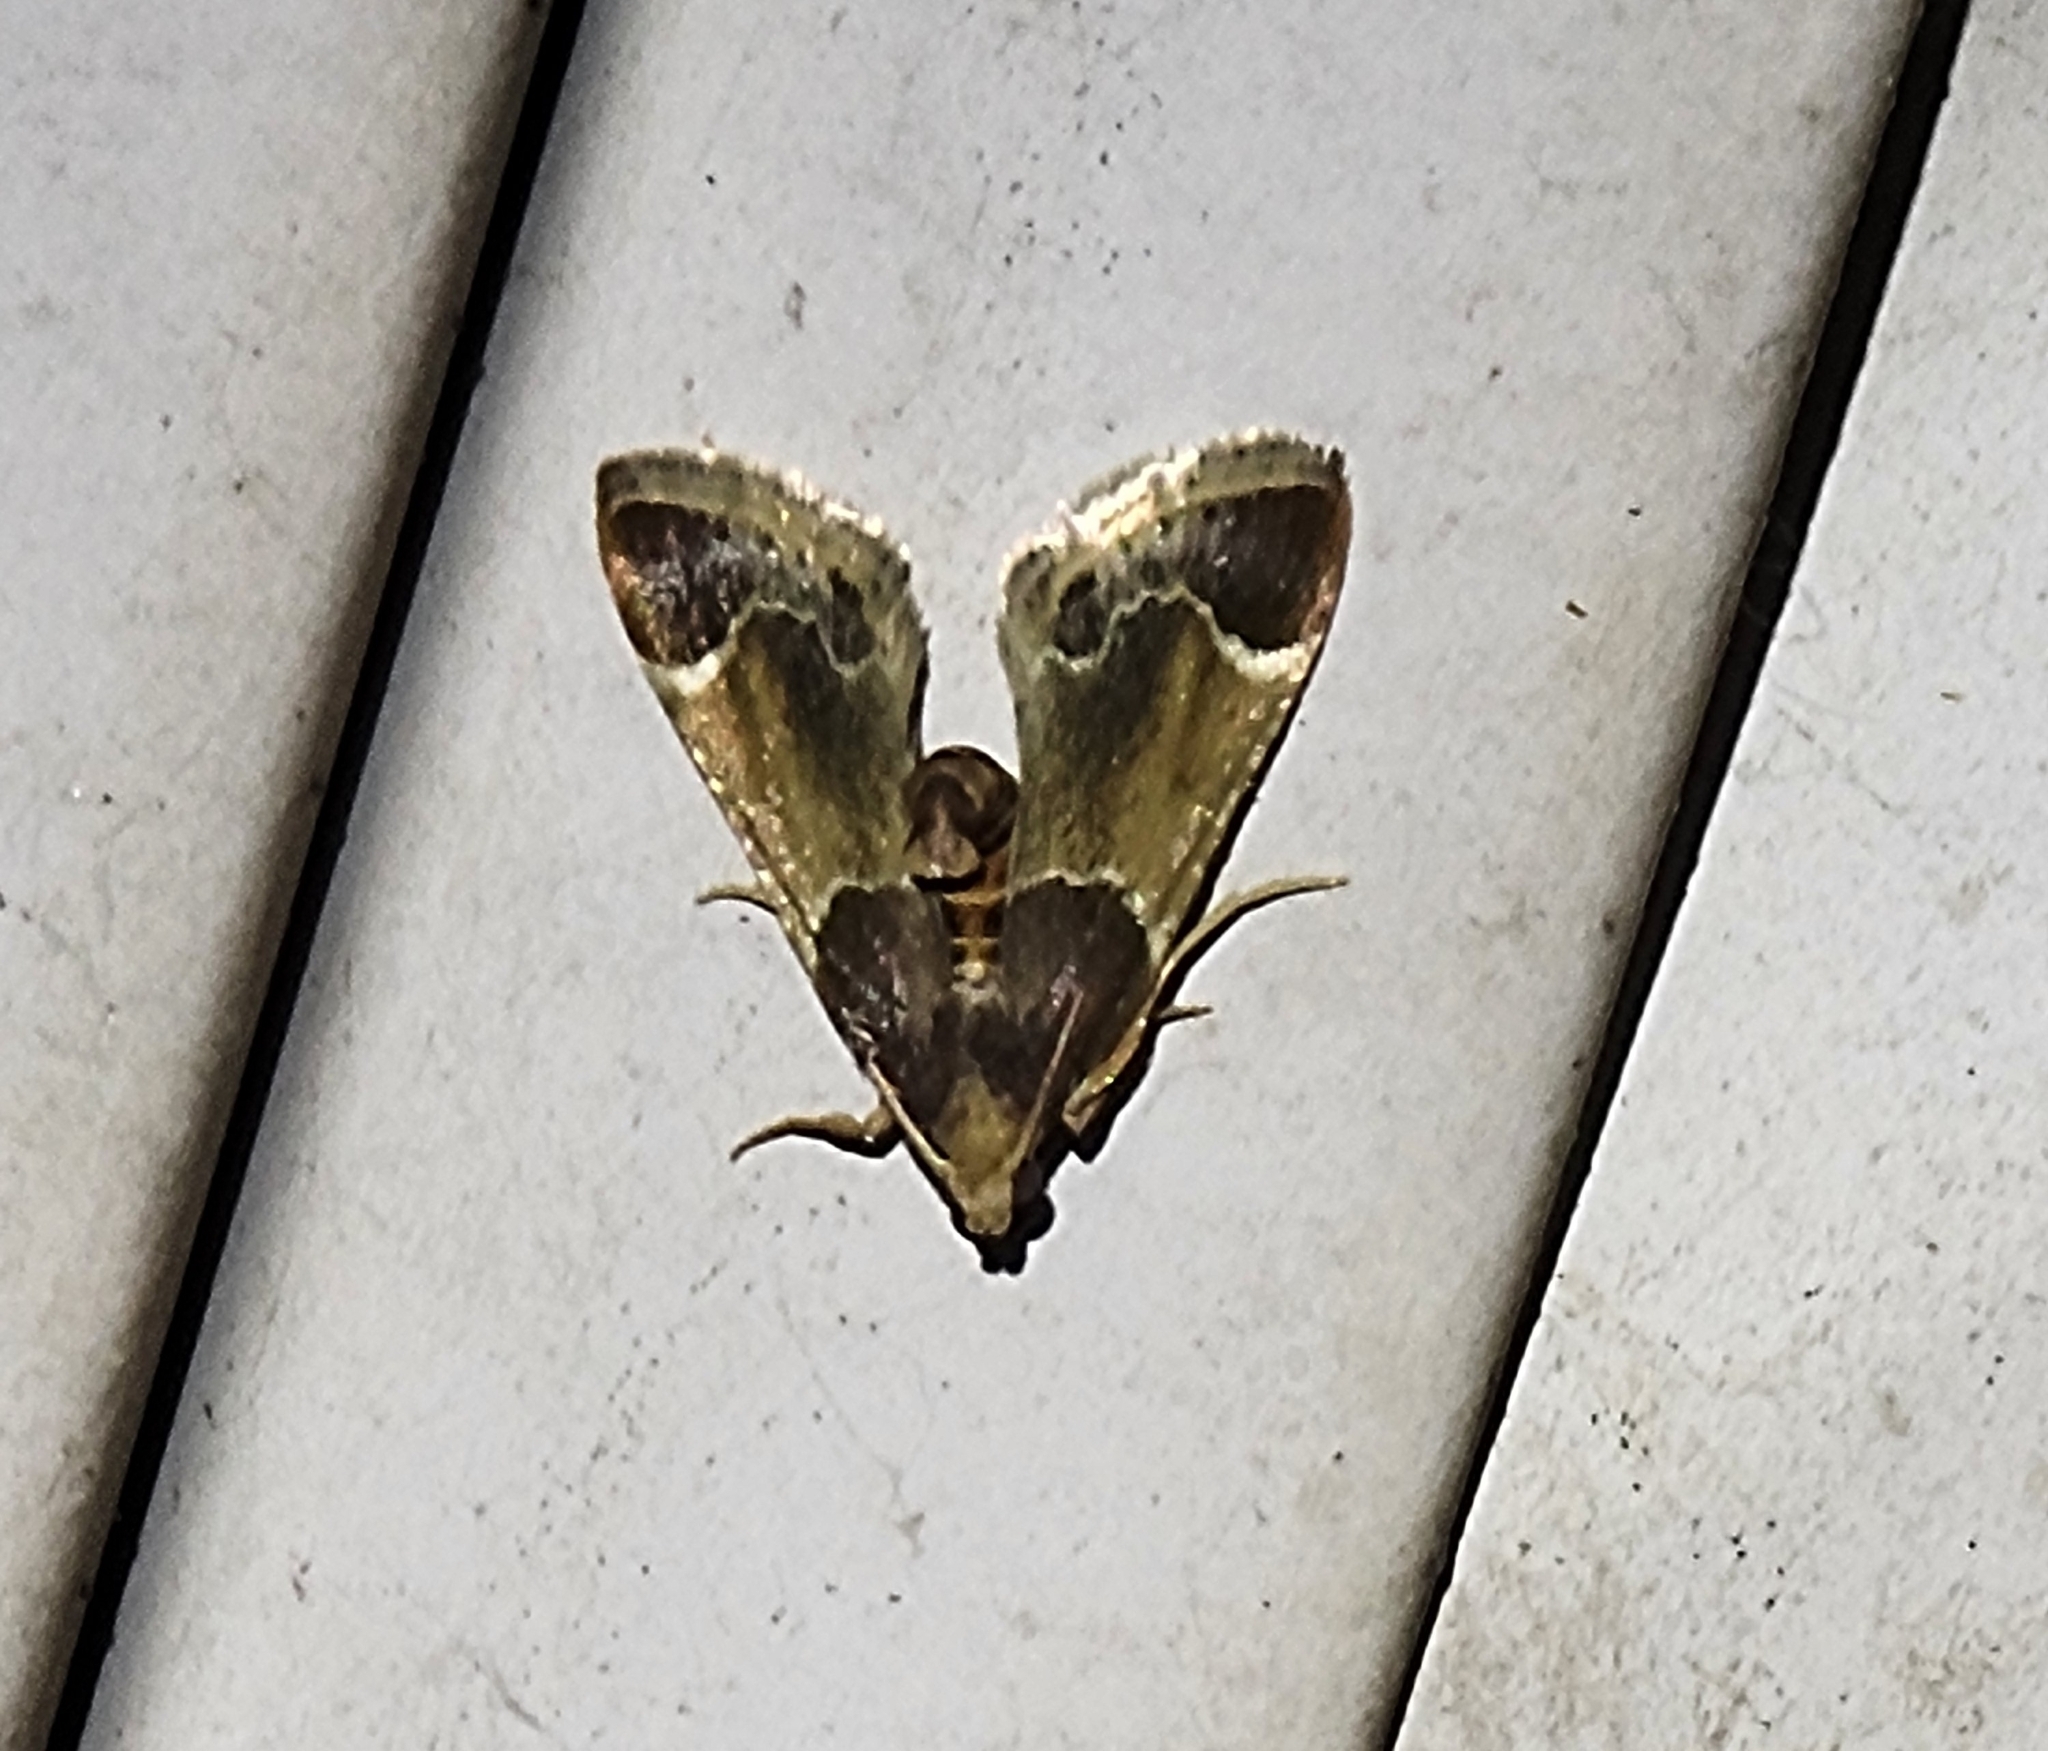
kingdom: Animalia
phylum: Arthropoda
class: Insecta
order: Lepidoptera
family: Pyralidae
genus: Pyralis
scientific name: Pyralis farinalis
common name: Meal moth
